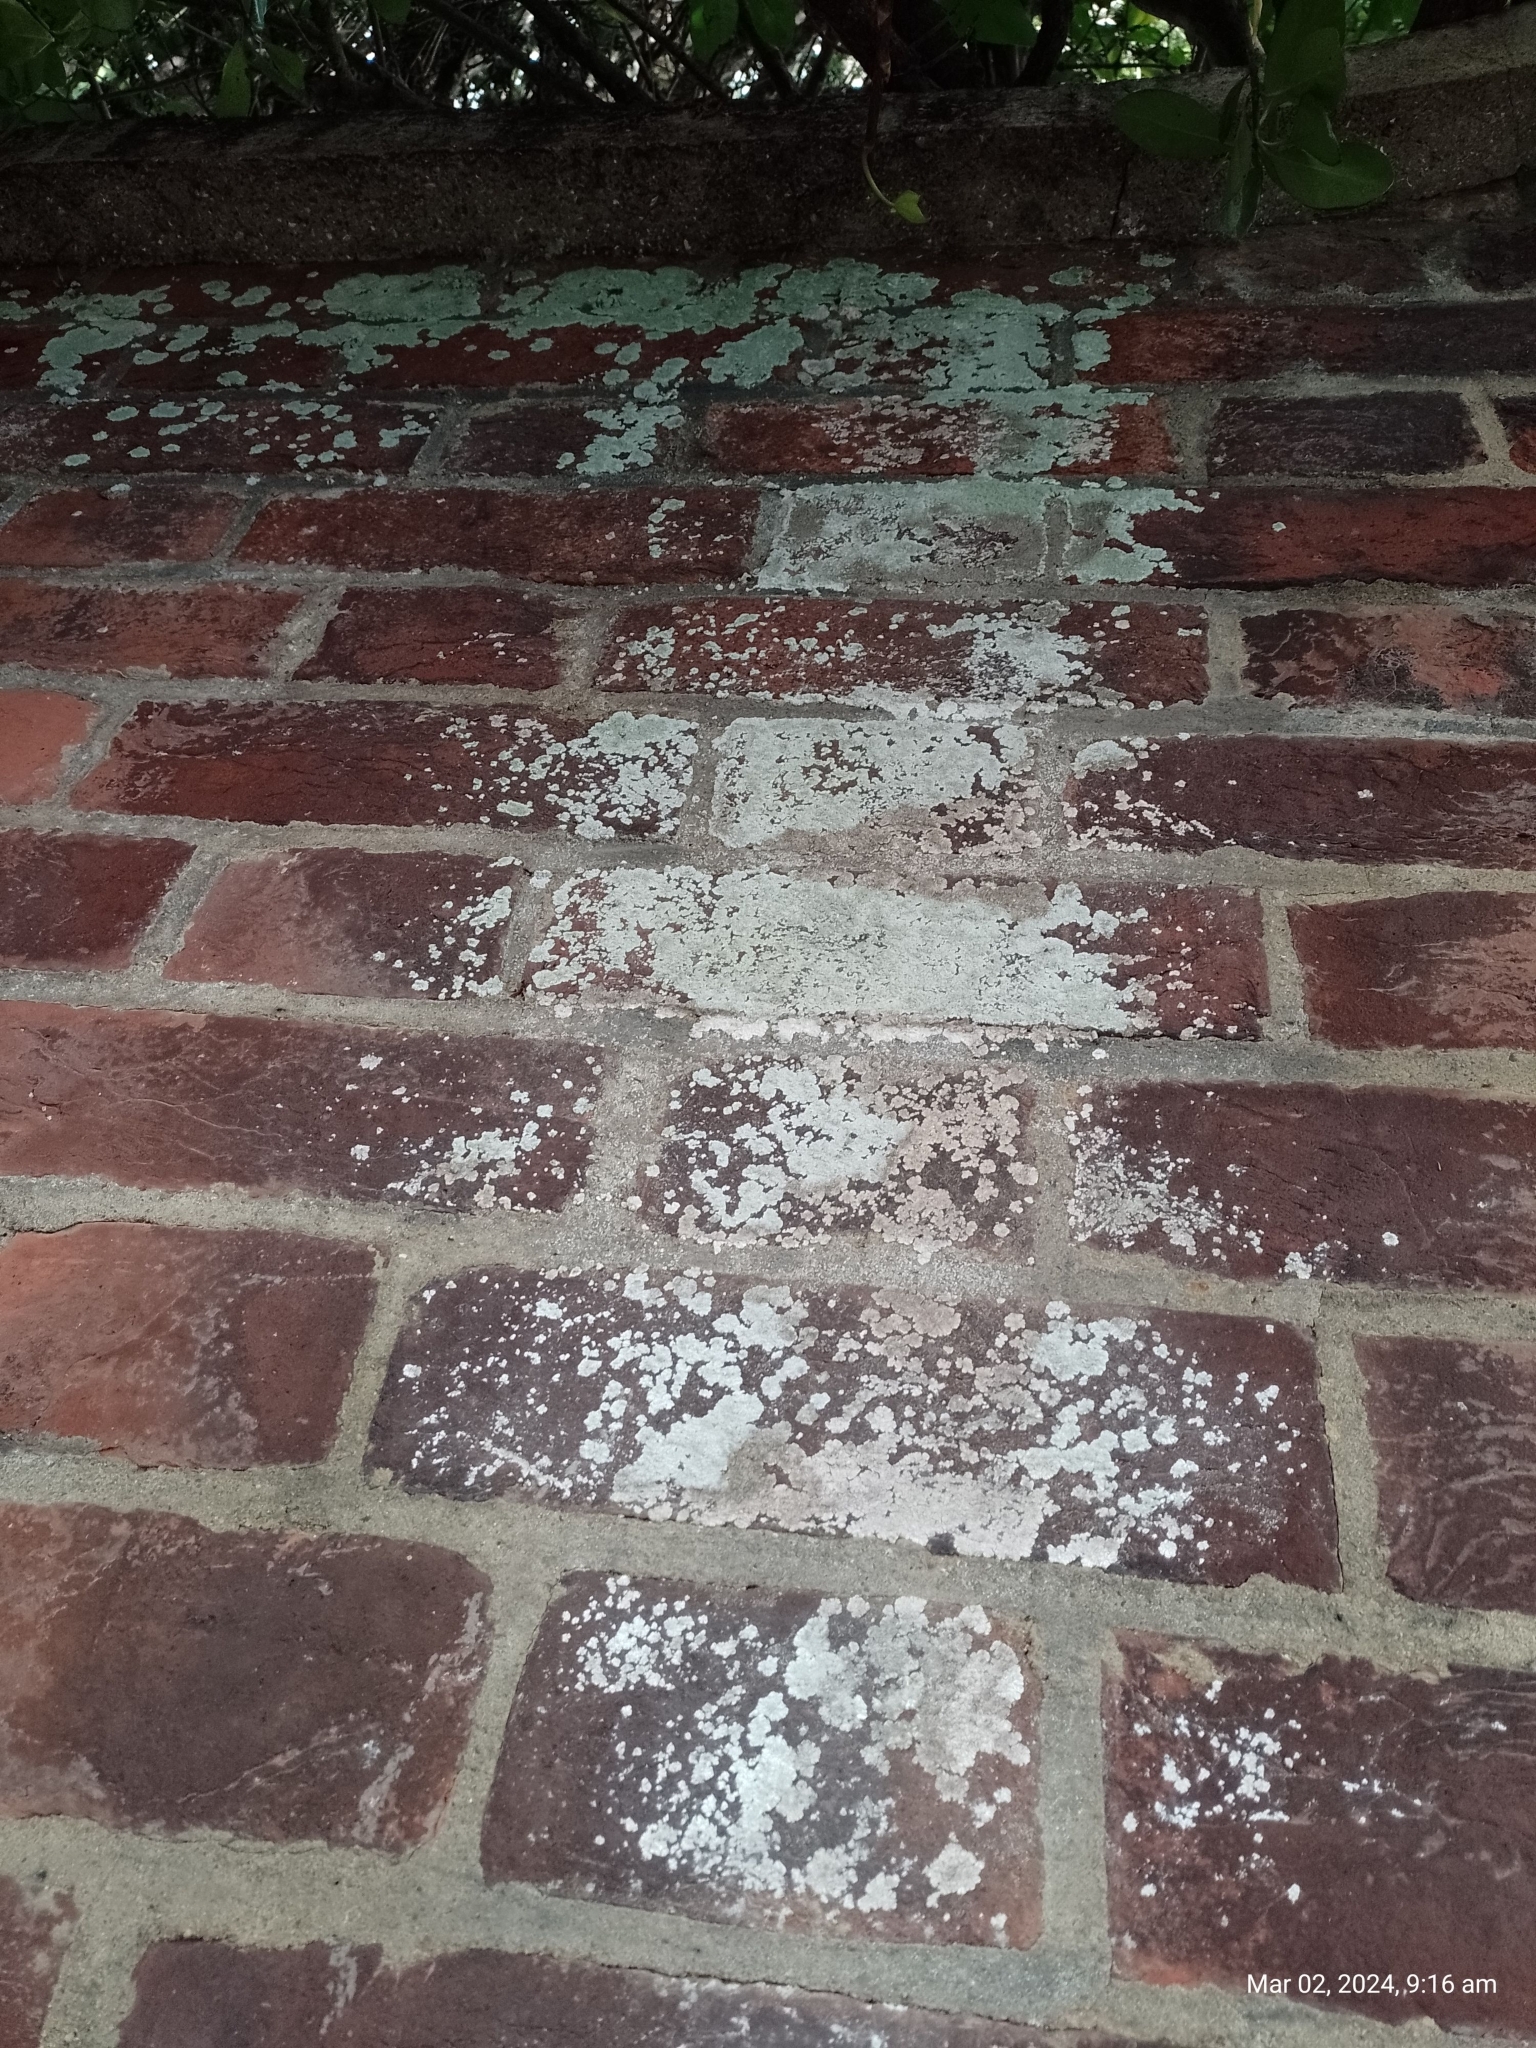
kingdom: Fungi
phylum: Ascomycota
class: Lecanoromycetes
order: Caliciales
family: Caliciaceae
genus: Diploicia
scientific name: Diploicia canescens
